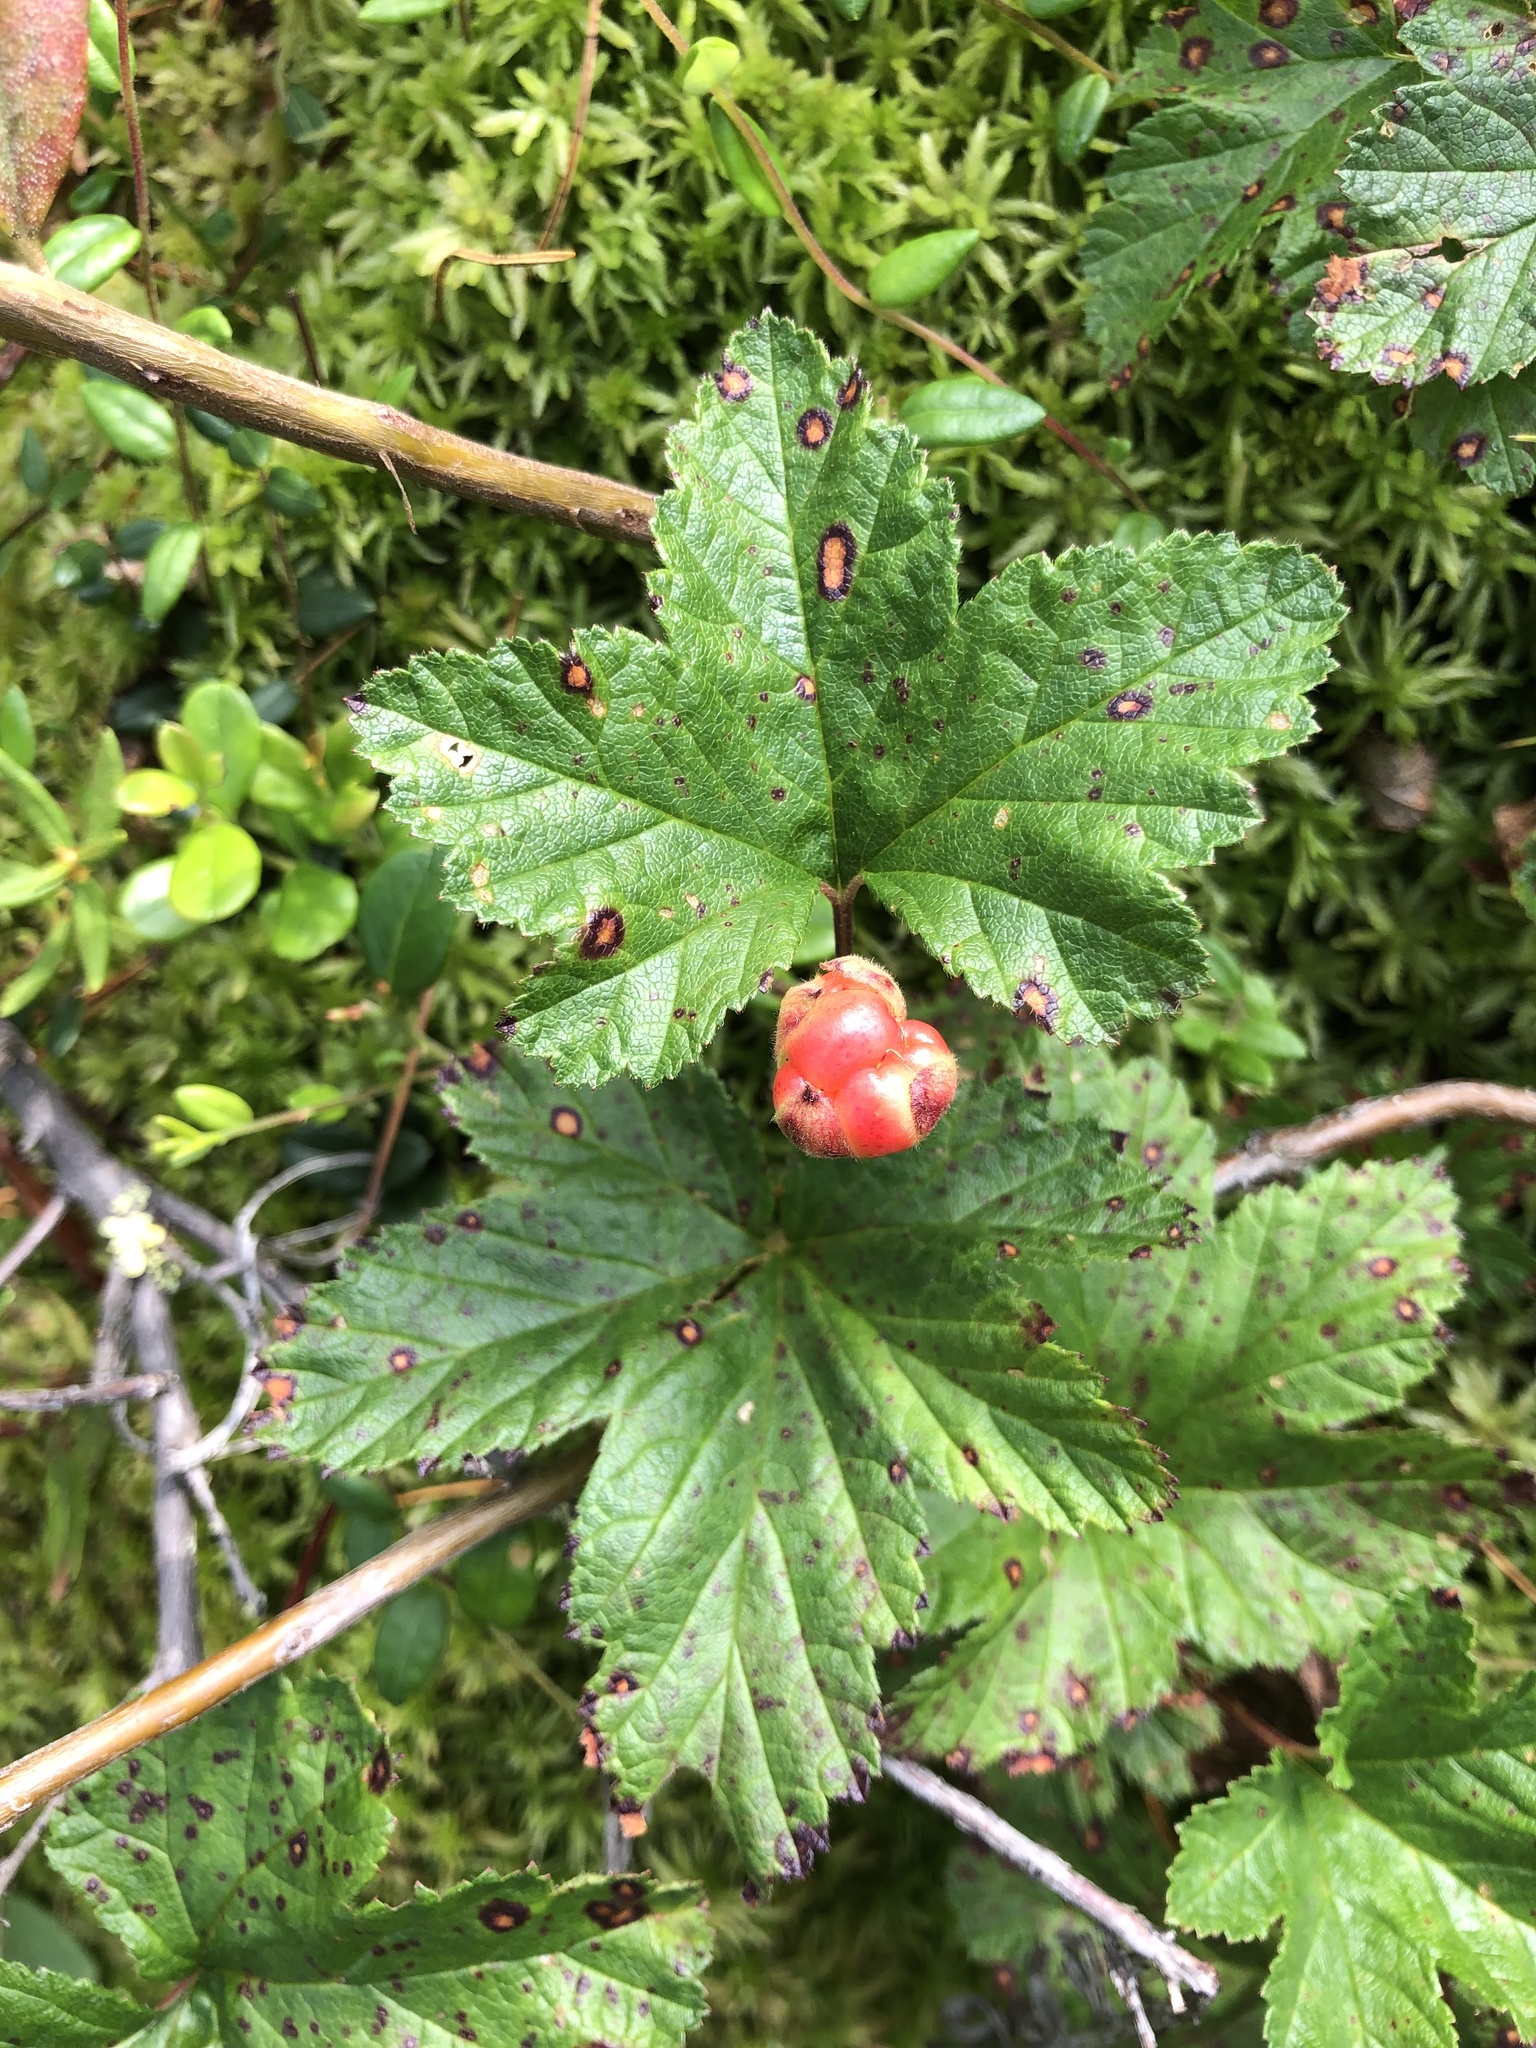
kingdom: Plantae
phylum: Tracheophyta
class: Magnoliopsida
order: Rosales
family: Rosaceae
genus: Rubus
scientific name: Rubus chamaemorus
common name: Cloudberry
